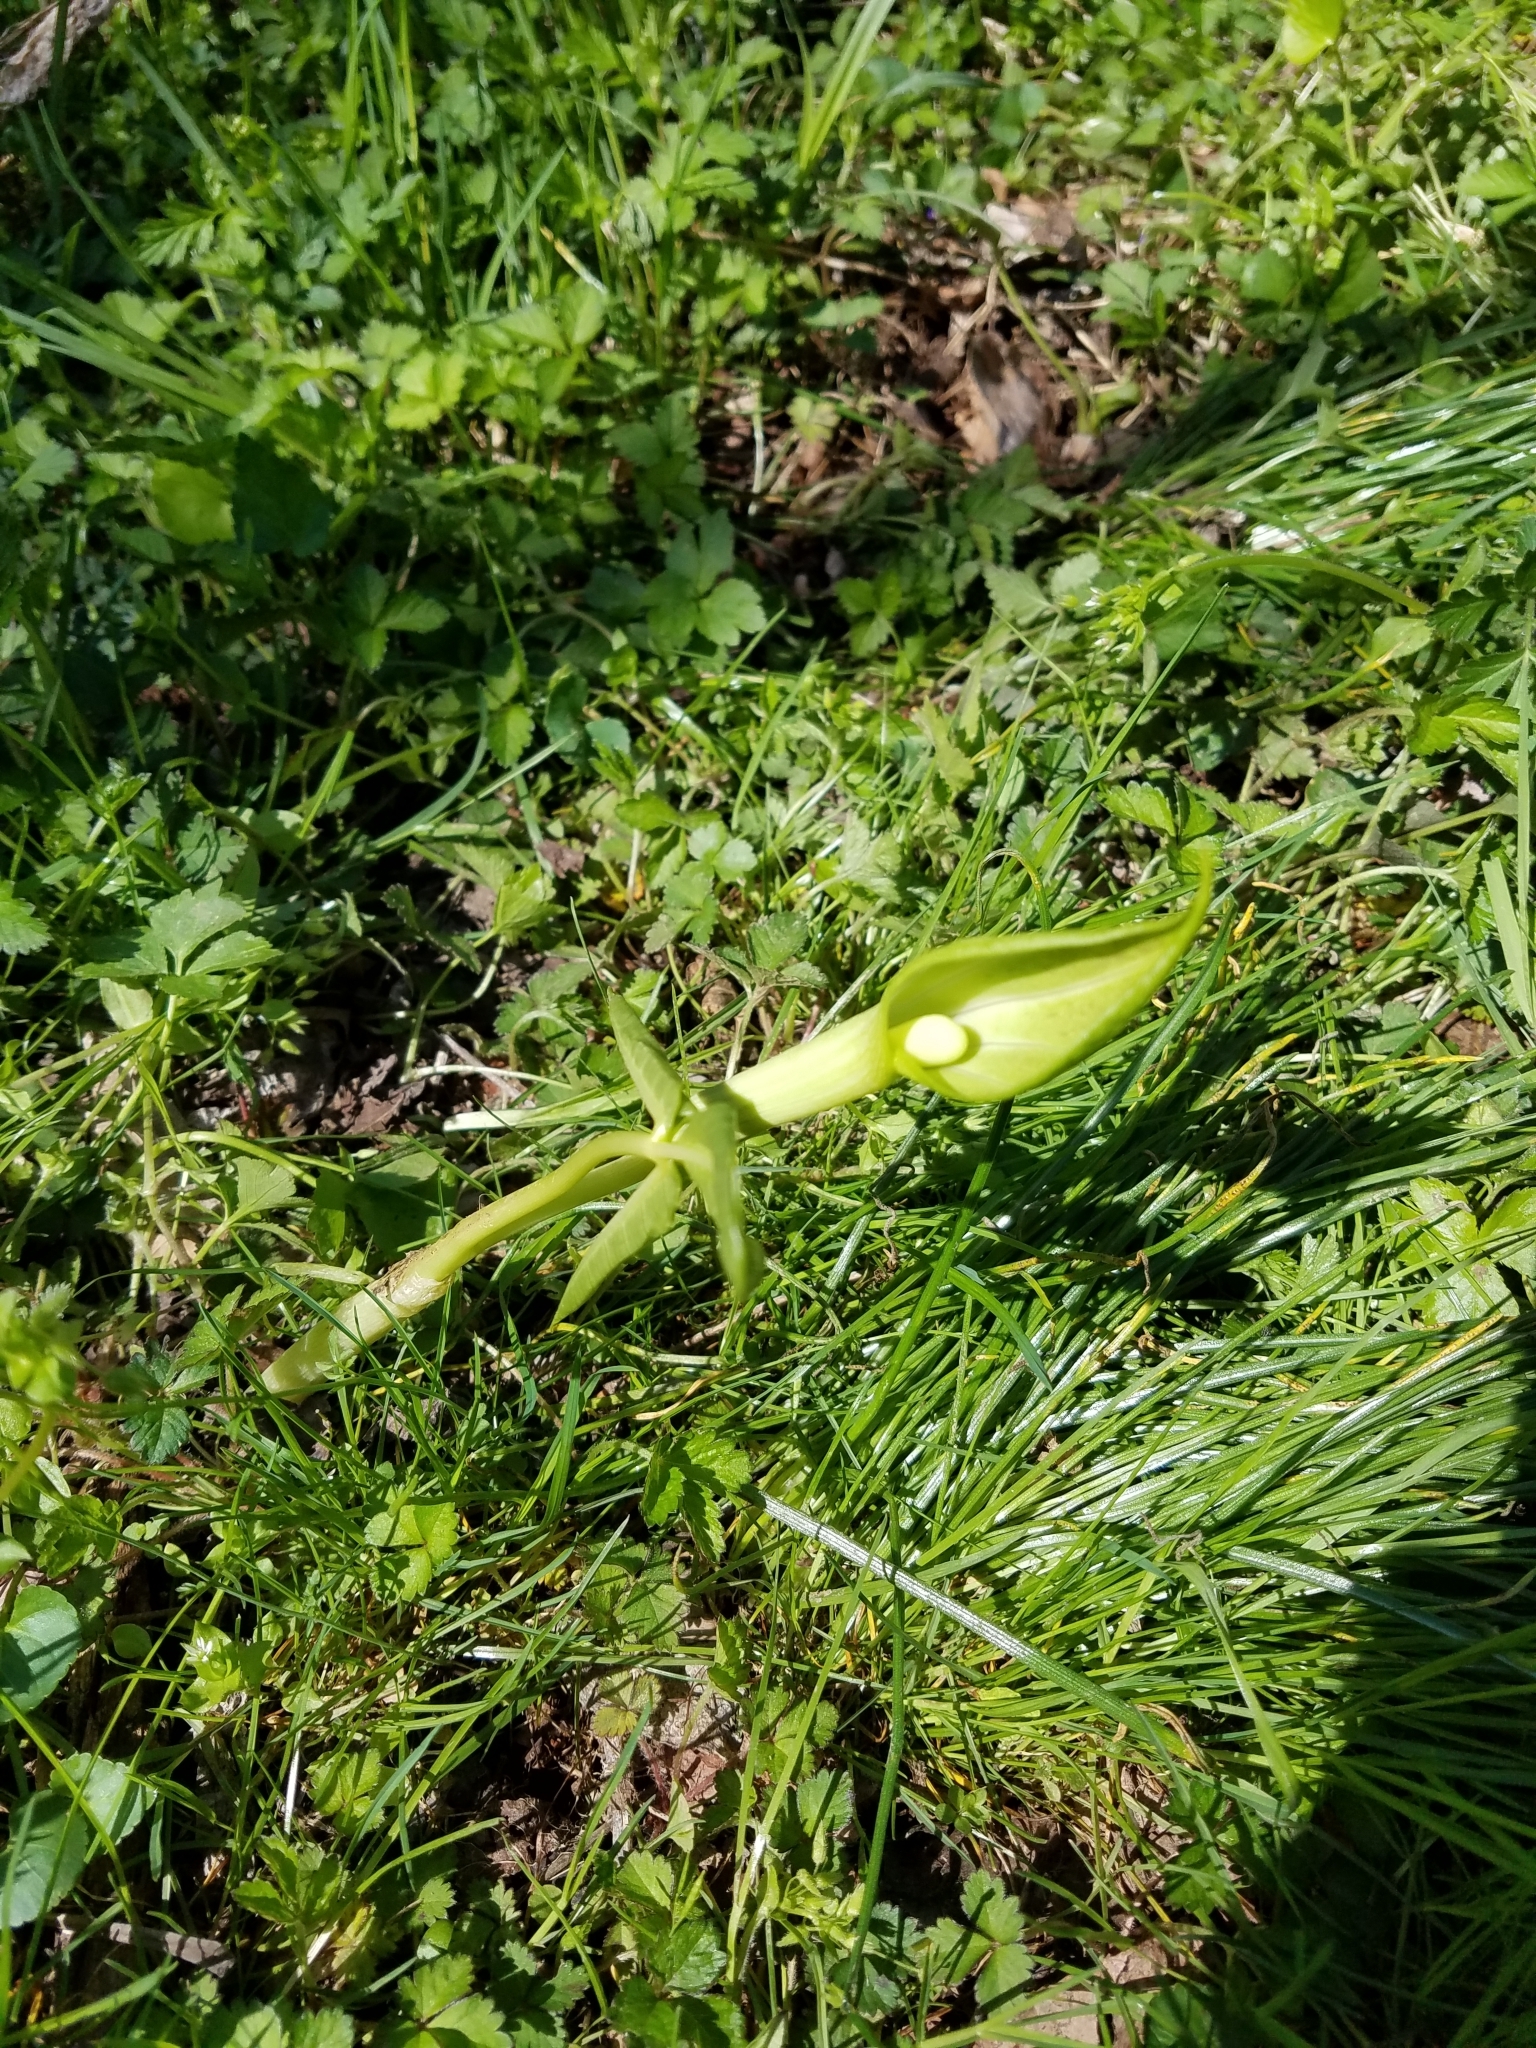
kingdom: Plantae
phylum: Tracheophyta
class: Liliopsida
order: Alismatales
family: Araceae
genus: Arisaema
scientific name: Arisaema triphyllum
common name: Jack-in-the-pulpit
